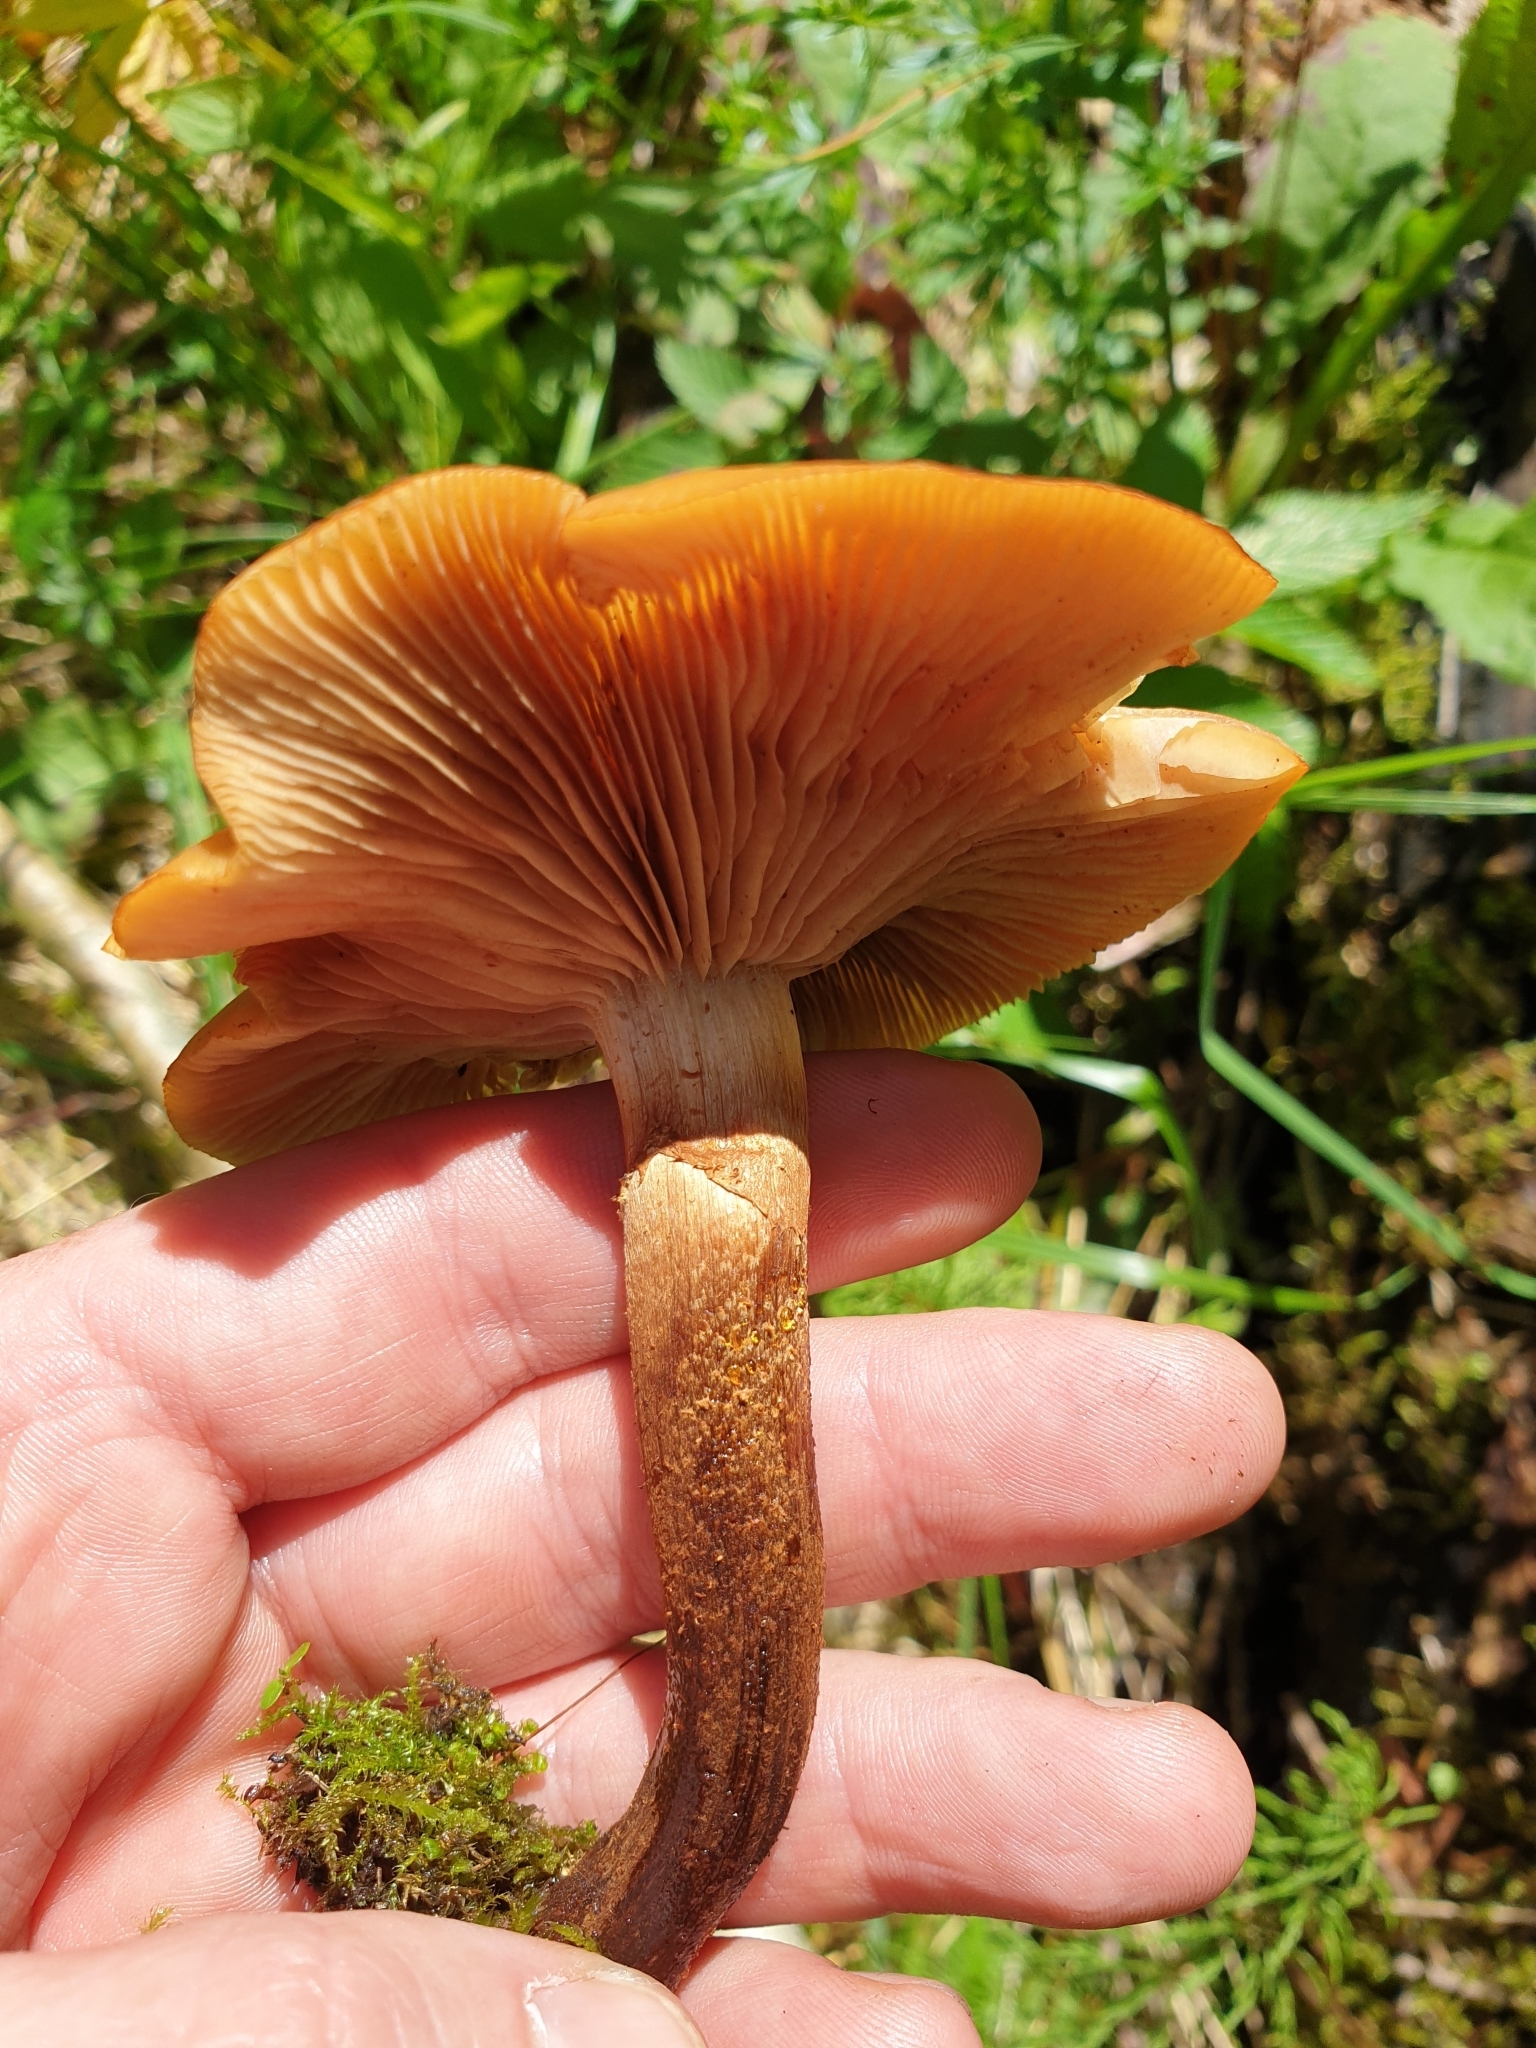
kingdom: Fungi
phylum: Basidiomycota
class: Agaricomycetes
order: Agaricales
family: Strophariaceae
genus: Kuehneromyces
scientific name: Kuehneromyces mutabilis
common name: Sheathed woodtuft
